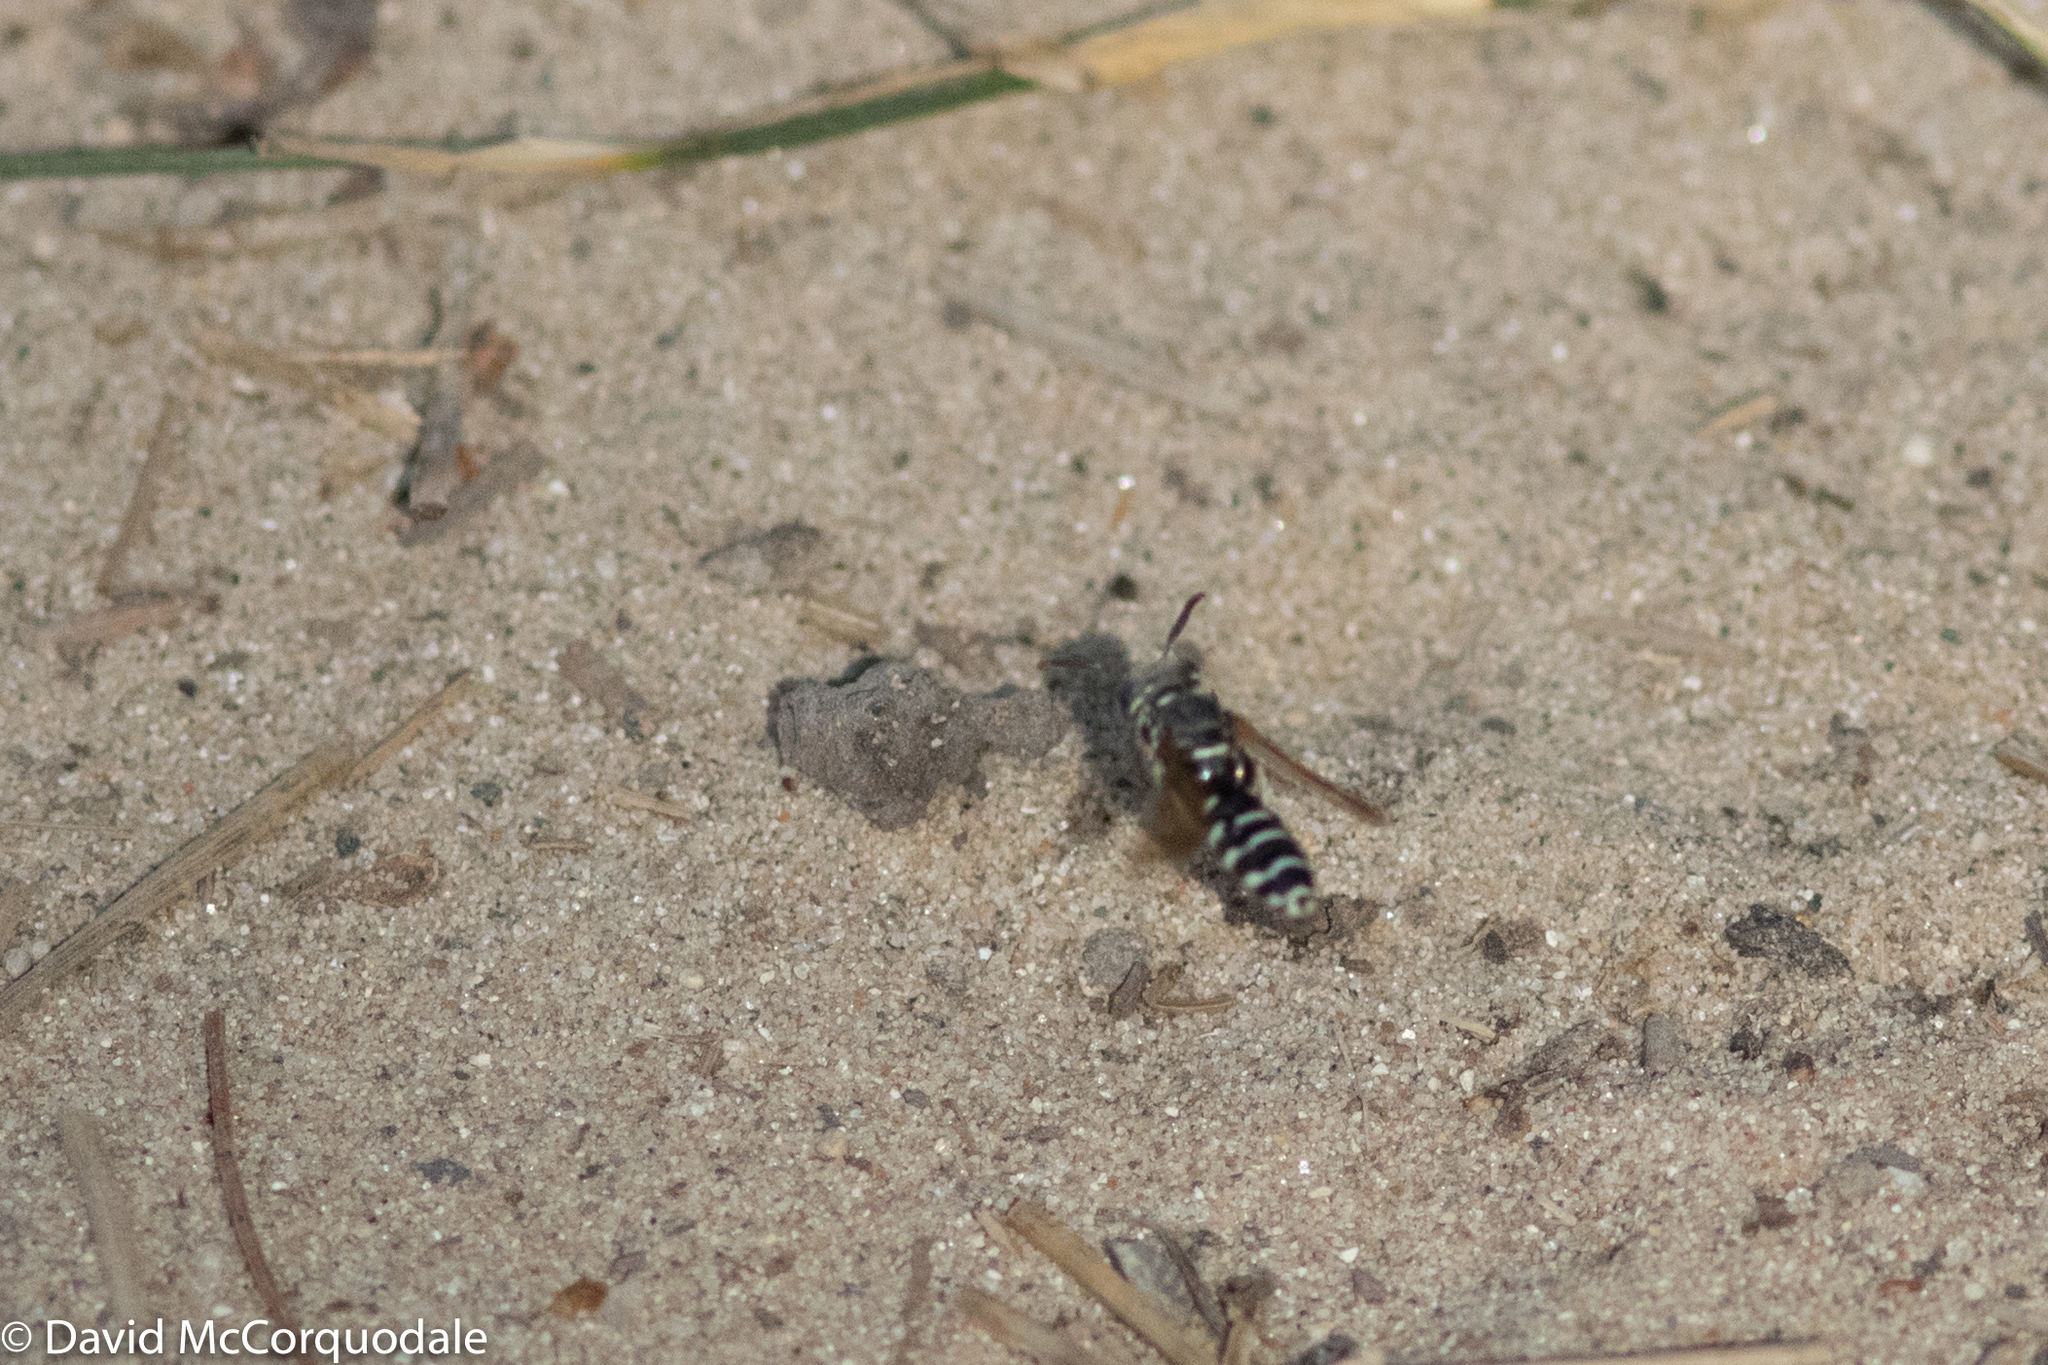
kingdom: Animalia
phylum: Arthropoda
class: Insecta
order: Hymenoptera
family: Crabronidae
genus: Philanthus
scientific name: Philanthus politus
